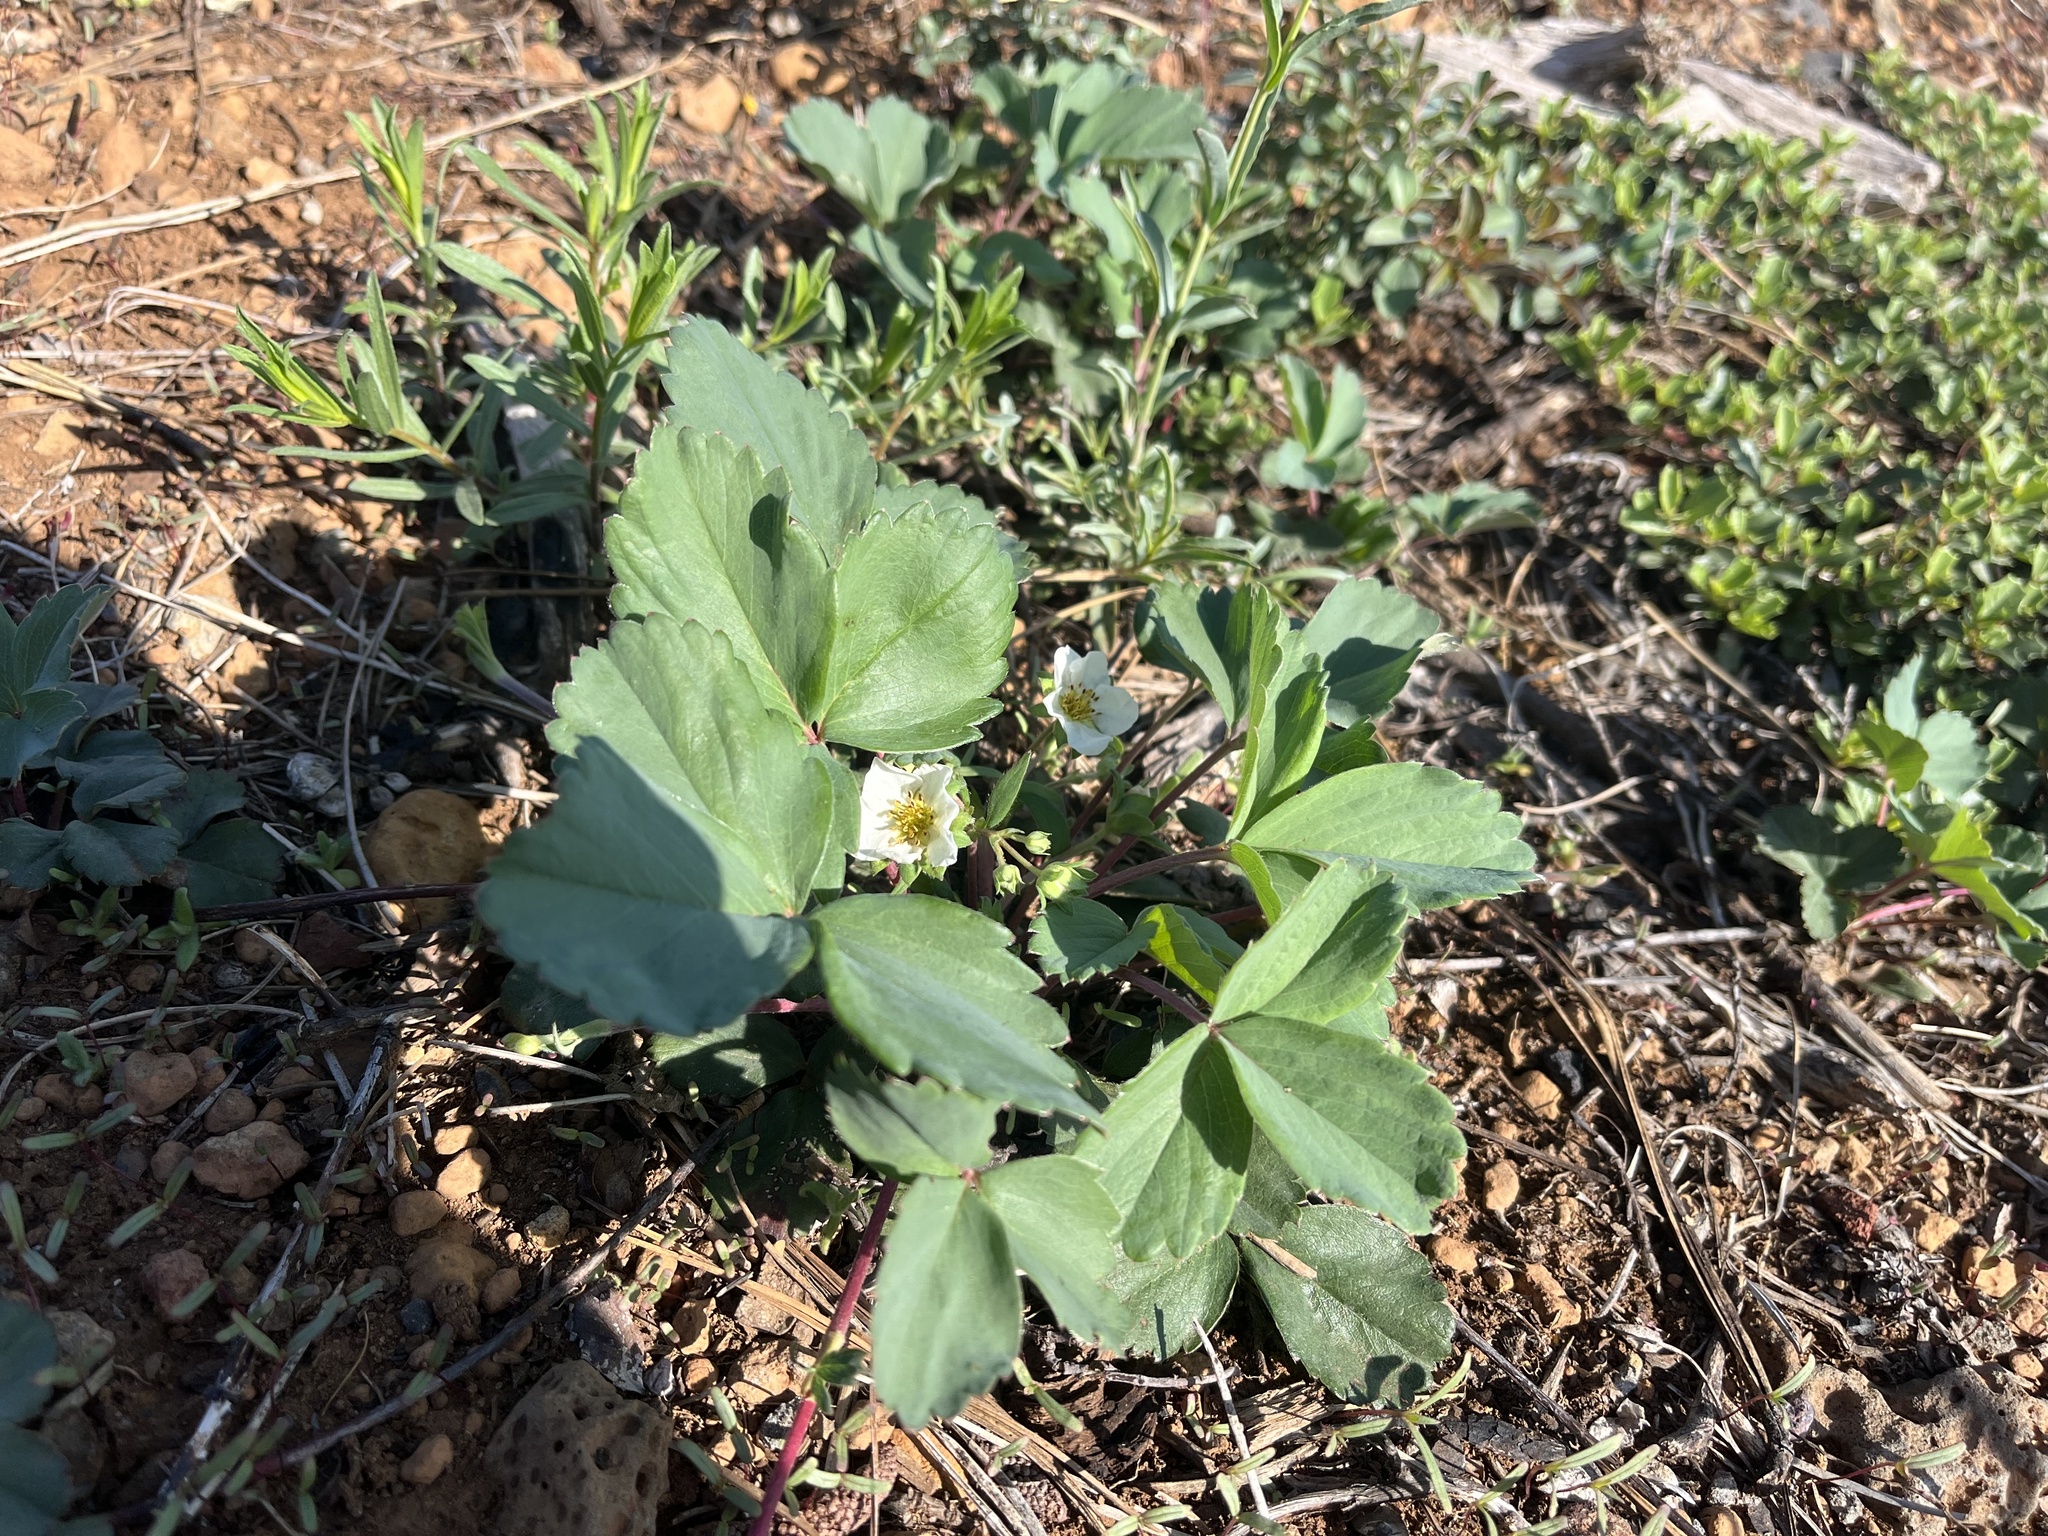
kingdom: Plantae
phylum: Tracheophyta
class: Magnoliopsida
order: Rosales
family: Rosaceae
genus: Fragaria
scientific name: Fragaria virginiana
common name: Thickleaved wild strawberry
